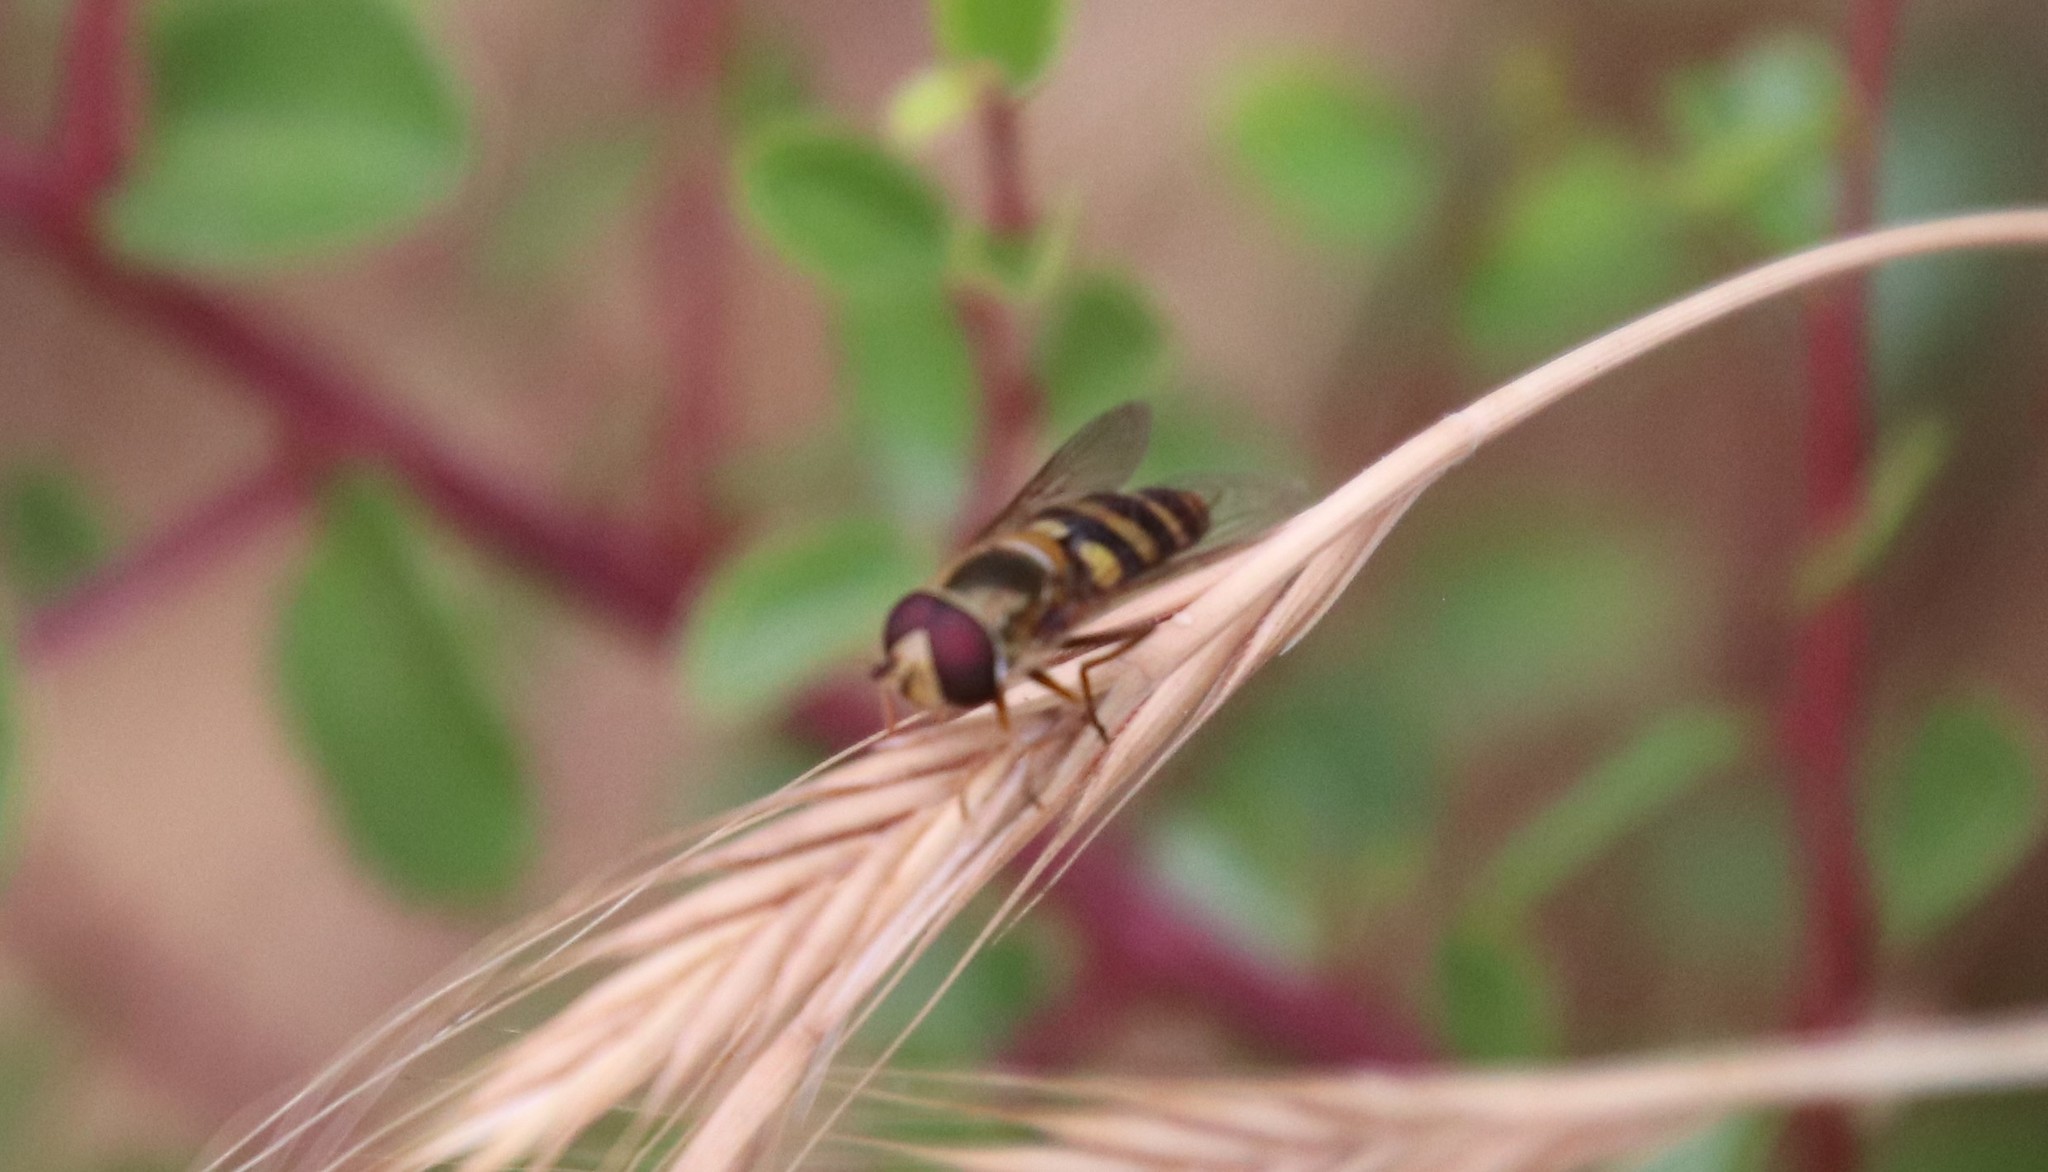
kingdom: Animalia
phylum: Arthropoda
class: Insecta
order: Diptera
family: Syrphidae
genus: Syrphus
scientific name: Syrphus opinator
